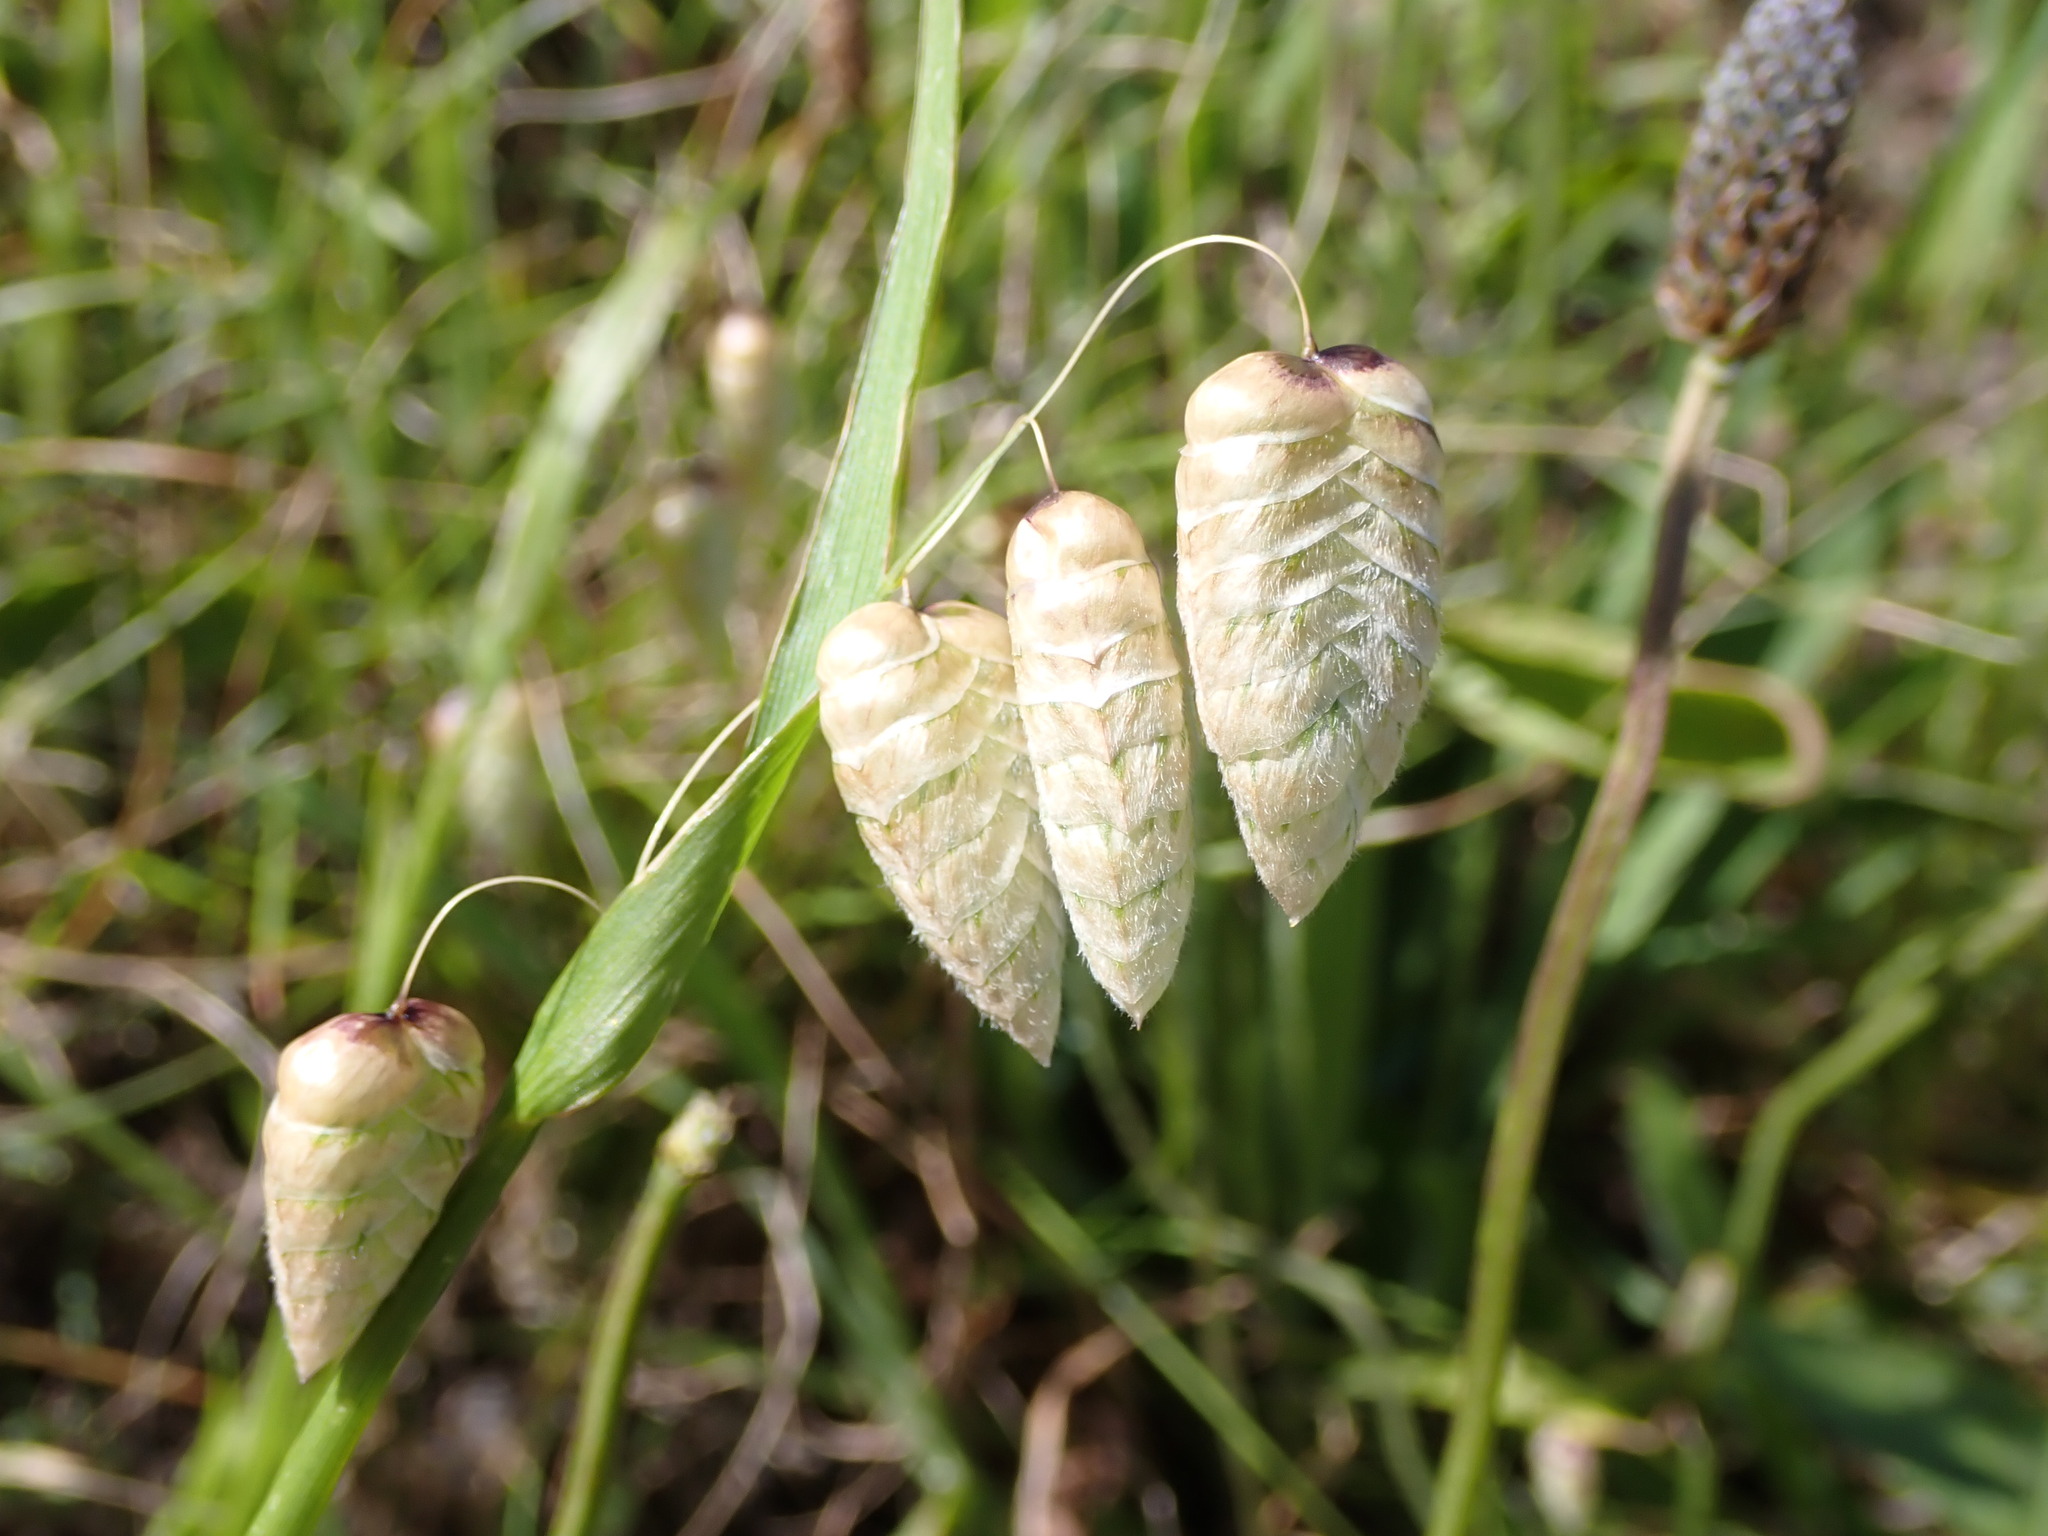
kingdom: Plantae
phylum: Tracheophyta
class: Liliopsida
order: Poales
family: Poaceae
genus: Briza
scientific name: Briza maxima
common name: Big quakinggrass
